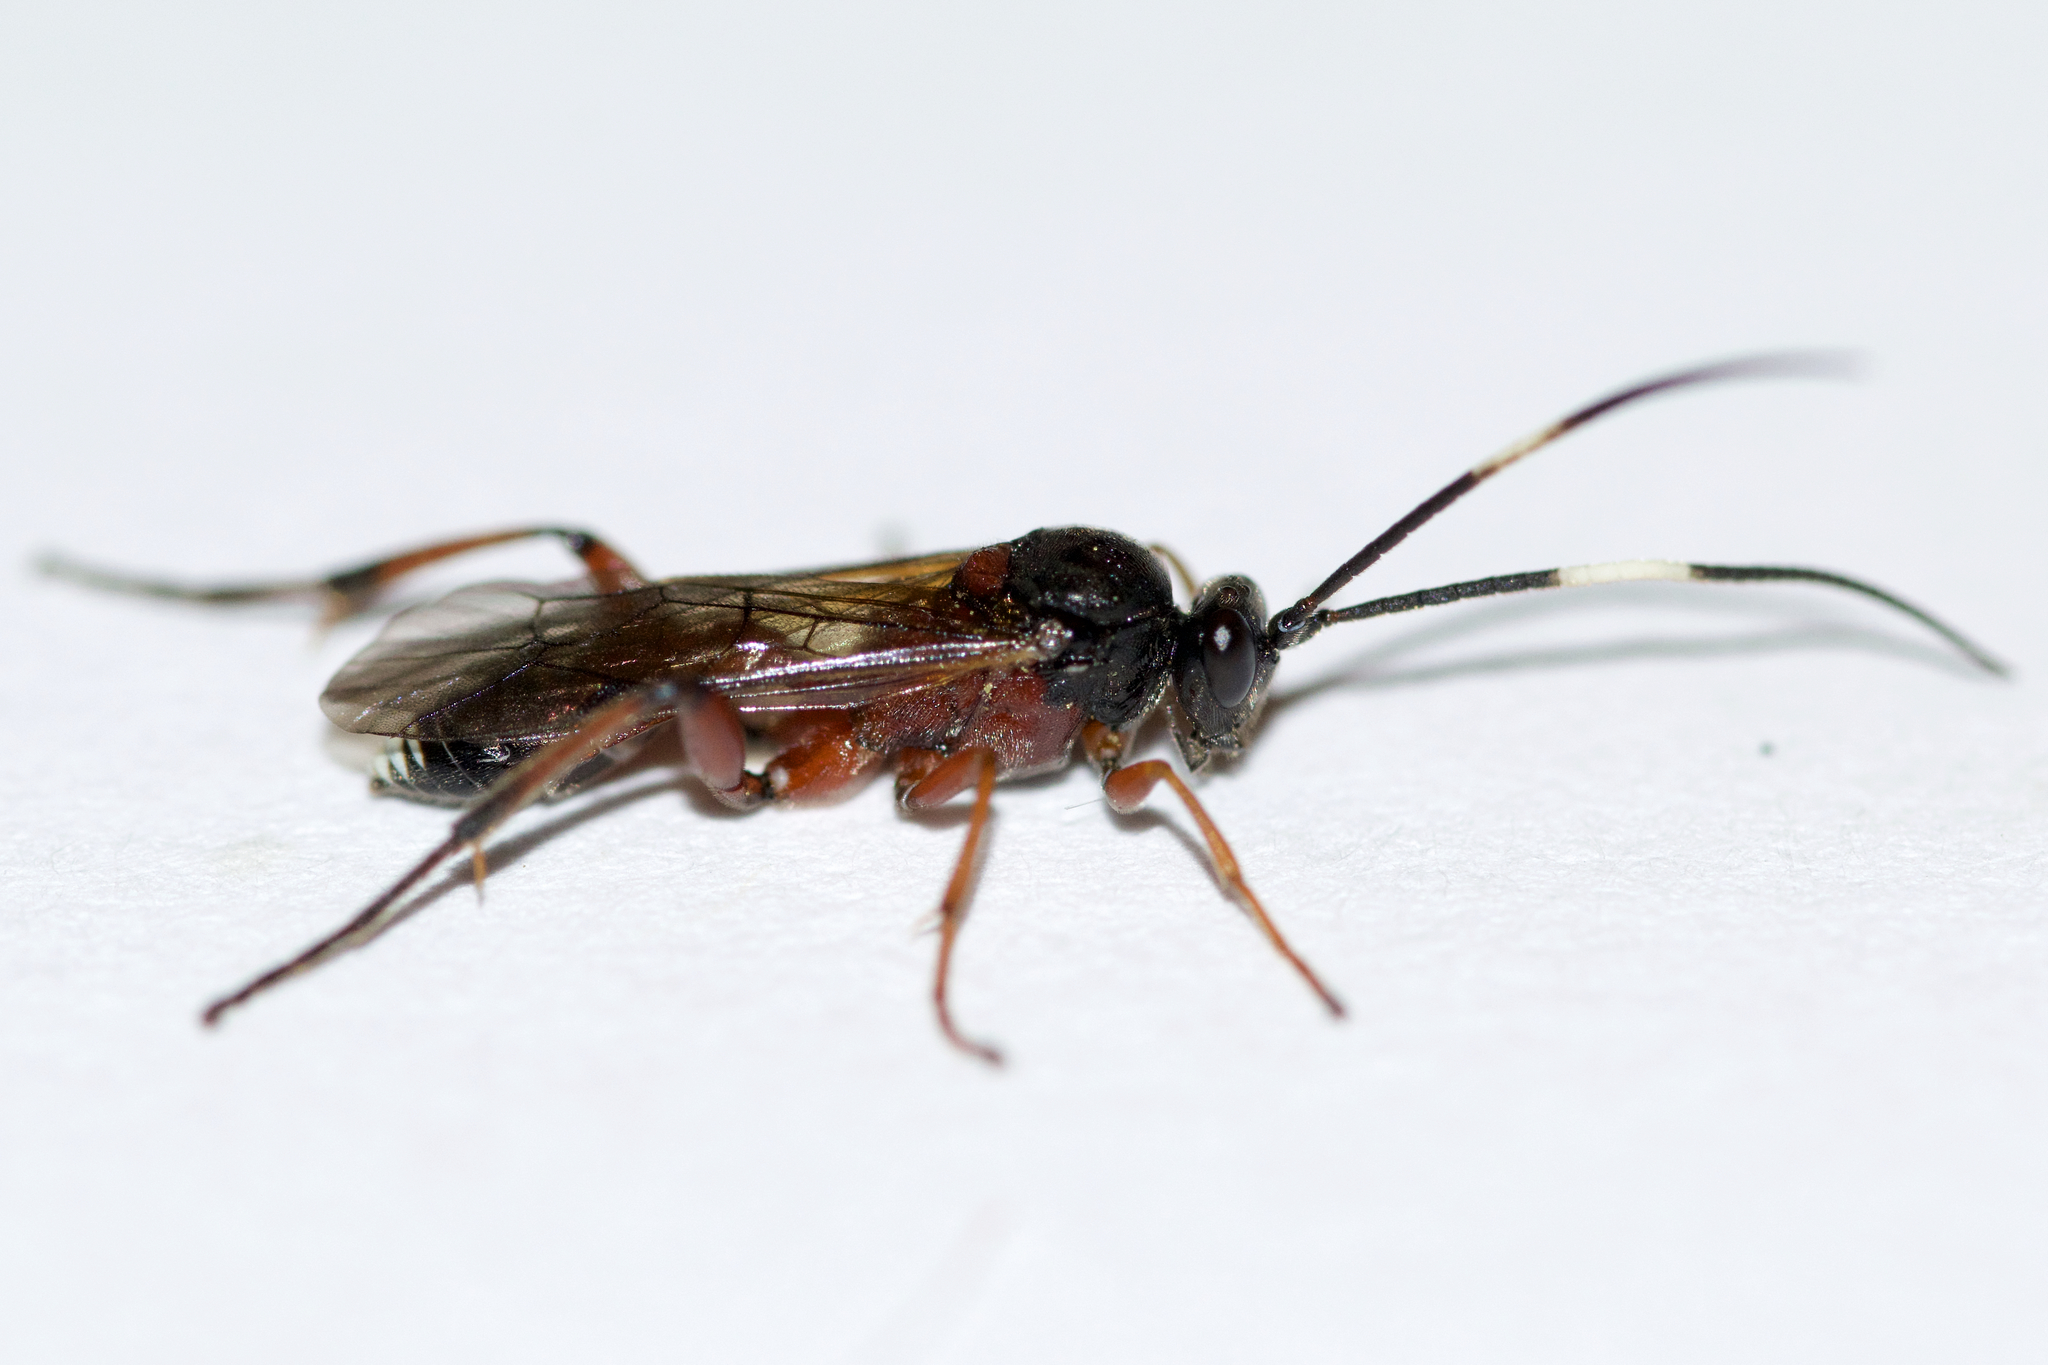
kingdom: Animalia
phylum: Arthropoda
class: Insecta
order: Hymenoptera
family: Ichneumonidae
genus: Linycus
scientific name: Linycus exhortator
